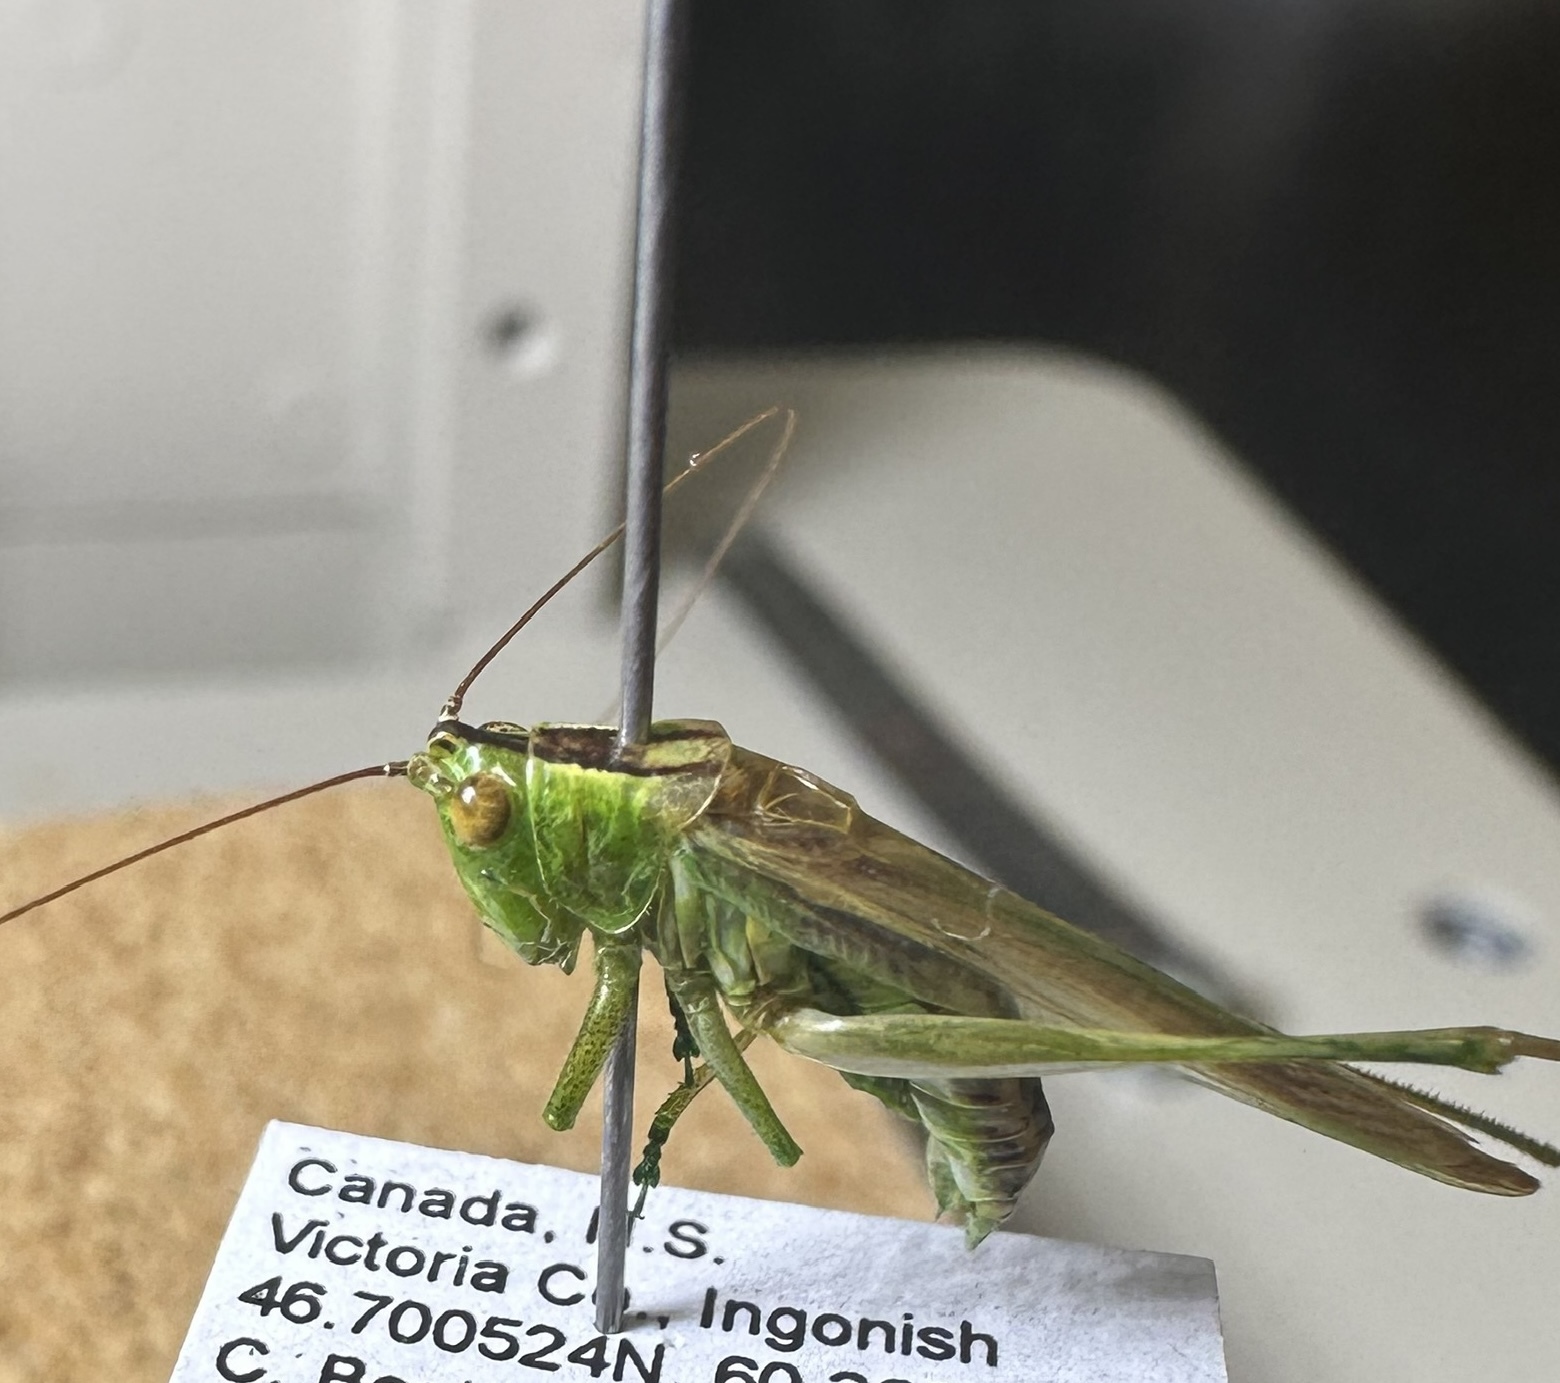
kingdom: Animalia
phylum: Arthropoda
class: Insecta
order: Orthoptera
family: Tettigoniidae
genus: Conocephalus
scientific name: Conocephalus fasciatus
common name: Slender meadow katydid
